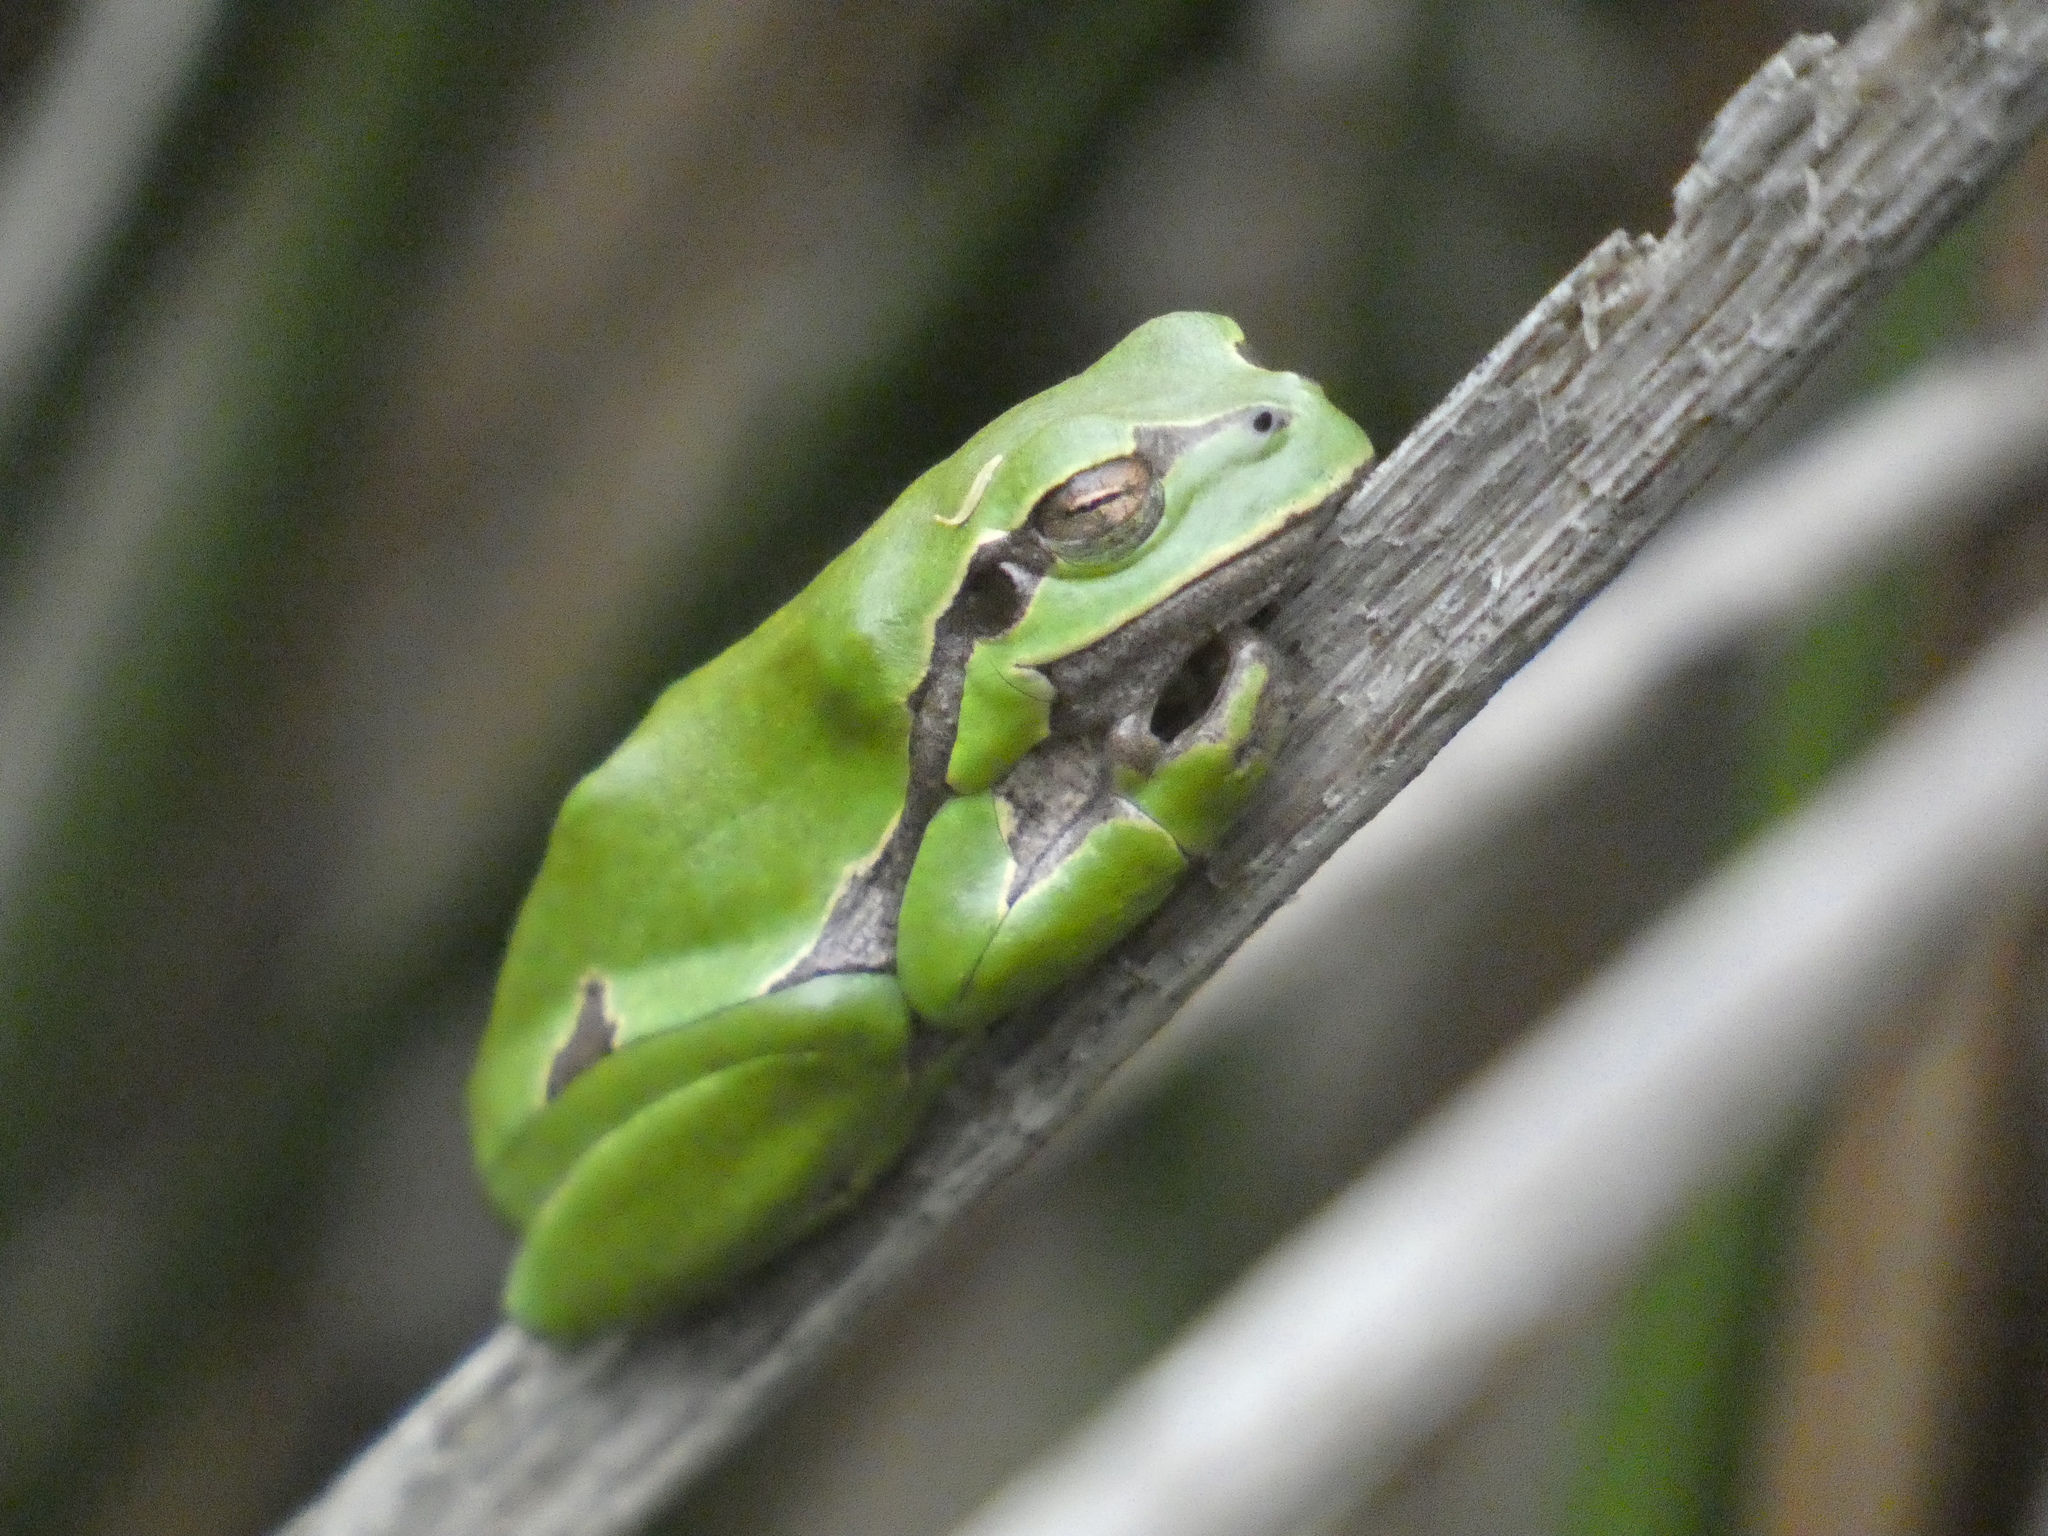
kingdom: Animalia
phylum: Chordata
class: Amphibia
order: Anura
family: Hylidae
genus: Hyla
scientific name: Hyla arborea
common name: Common tree frog
